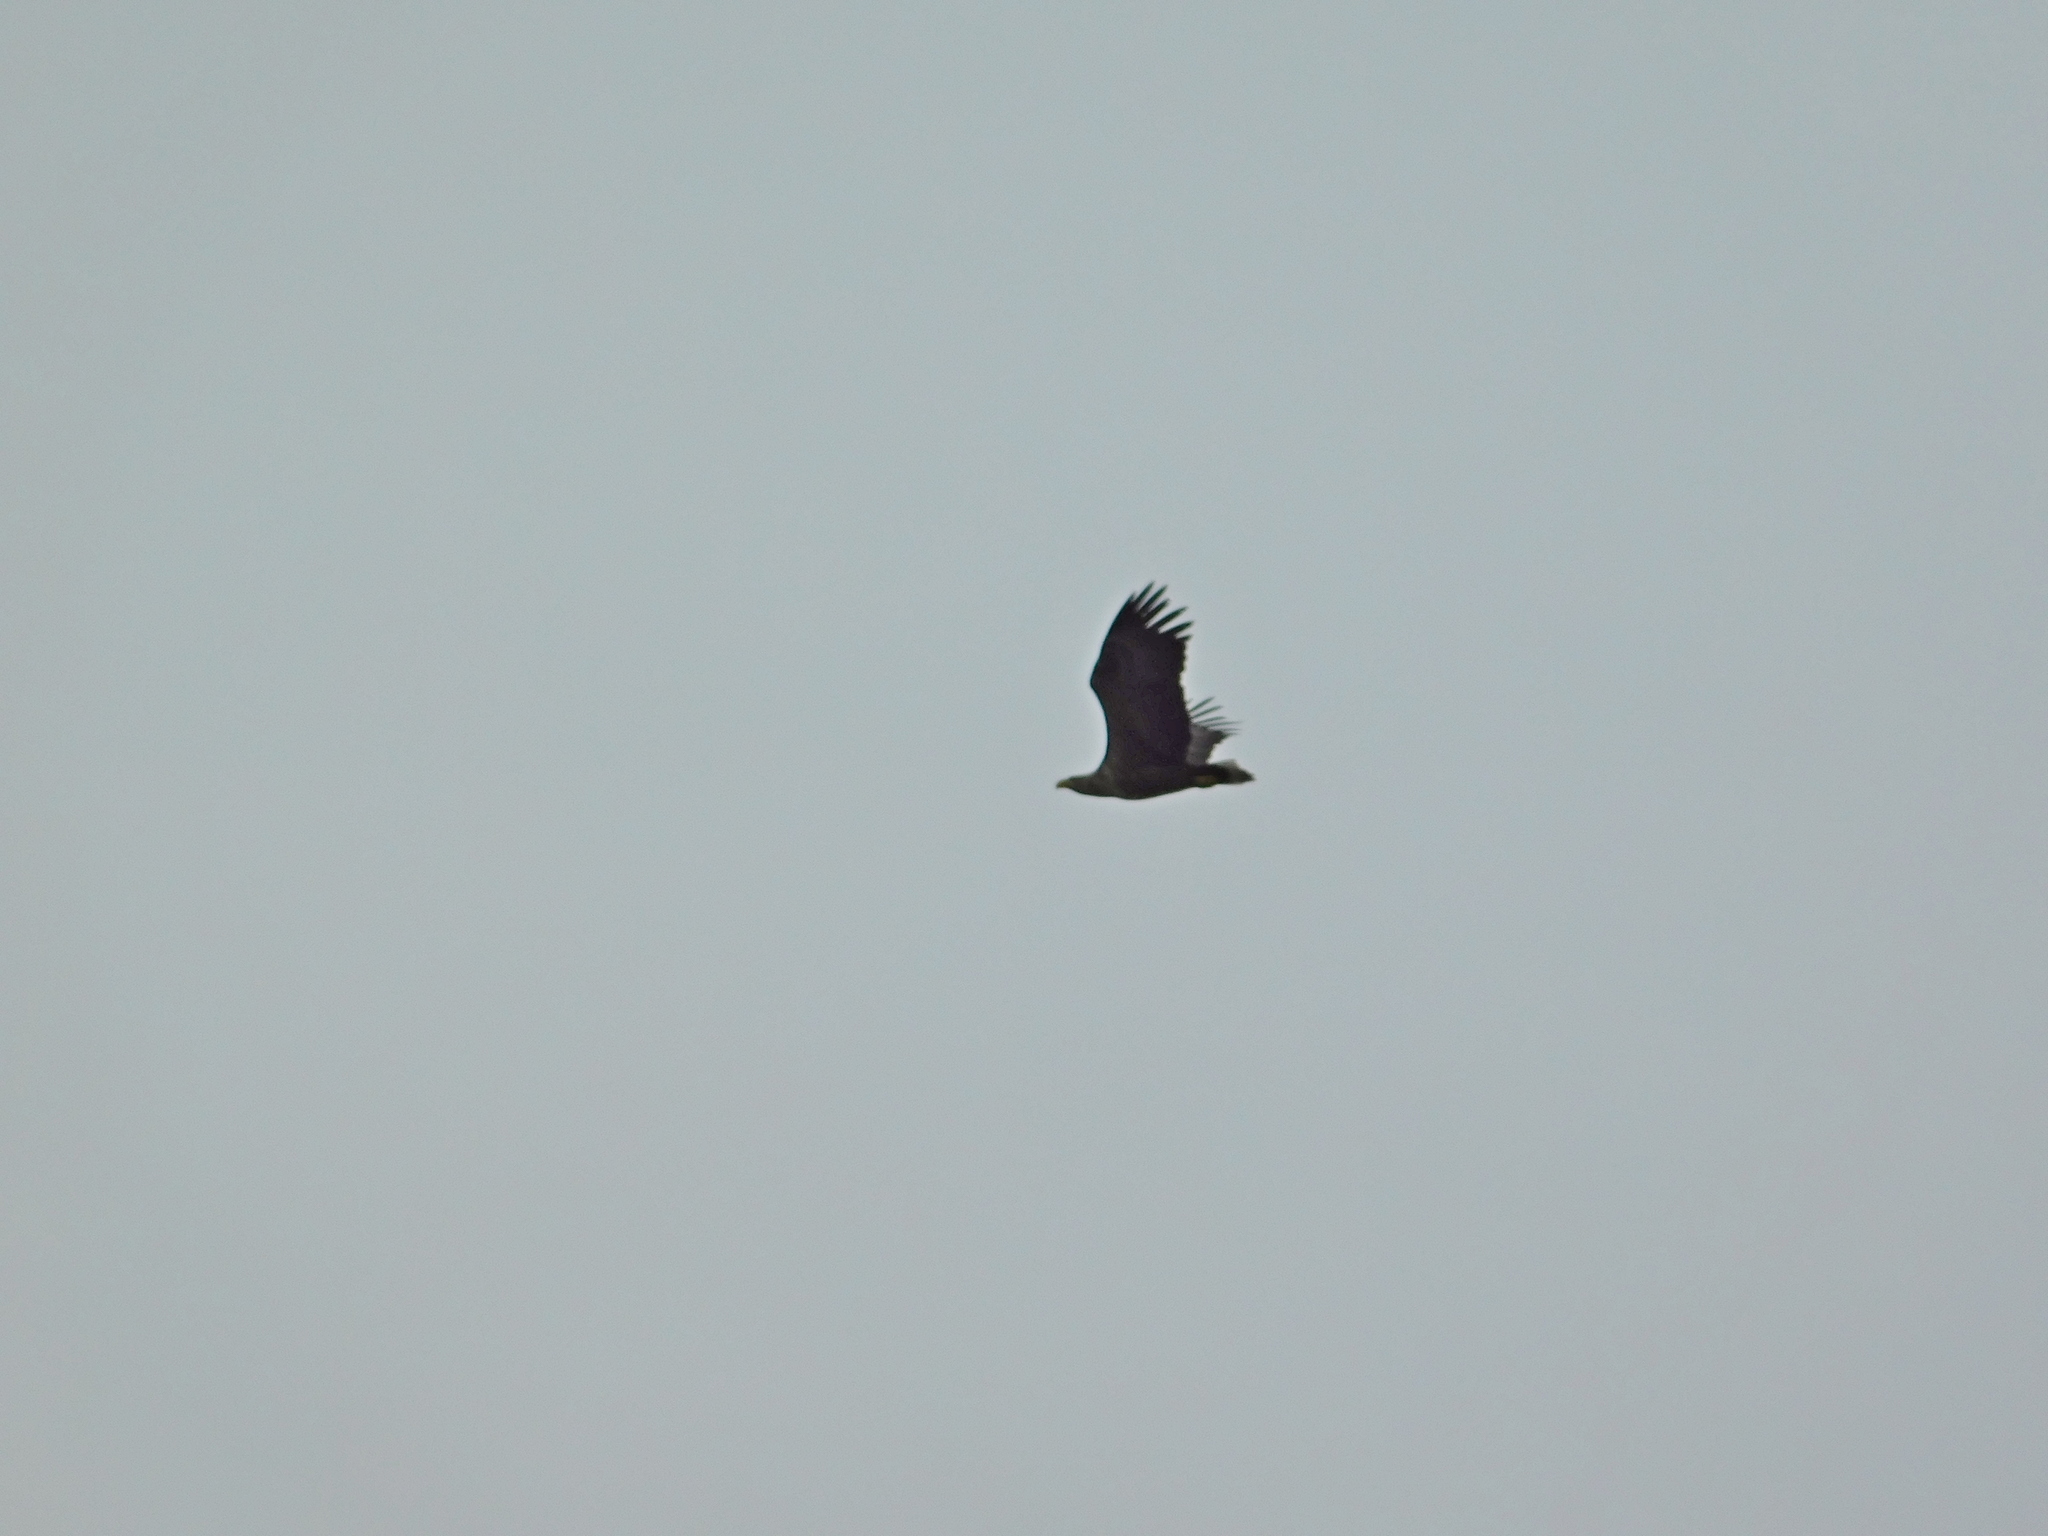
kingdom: Animalia
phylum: Chordata
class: Aves
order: Accipitriformes
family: Accipitridae
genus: Haliaeetus
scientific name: Haliaeetus albicilla
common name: White-tailed eagle
